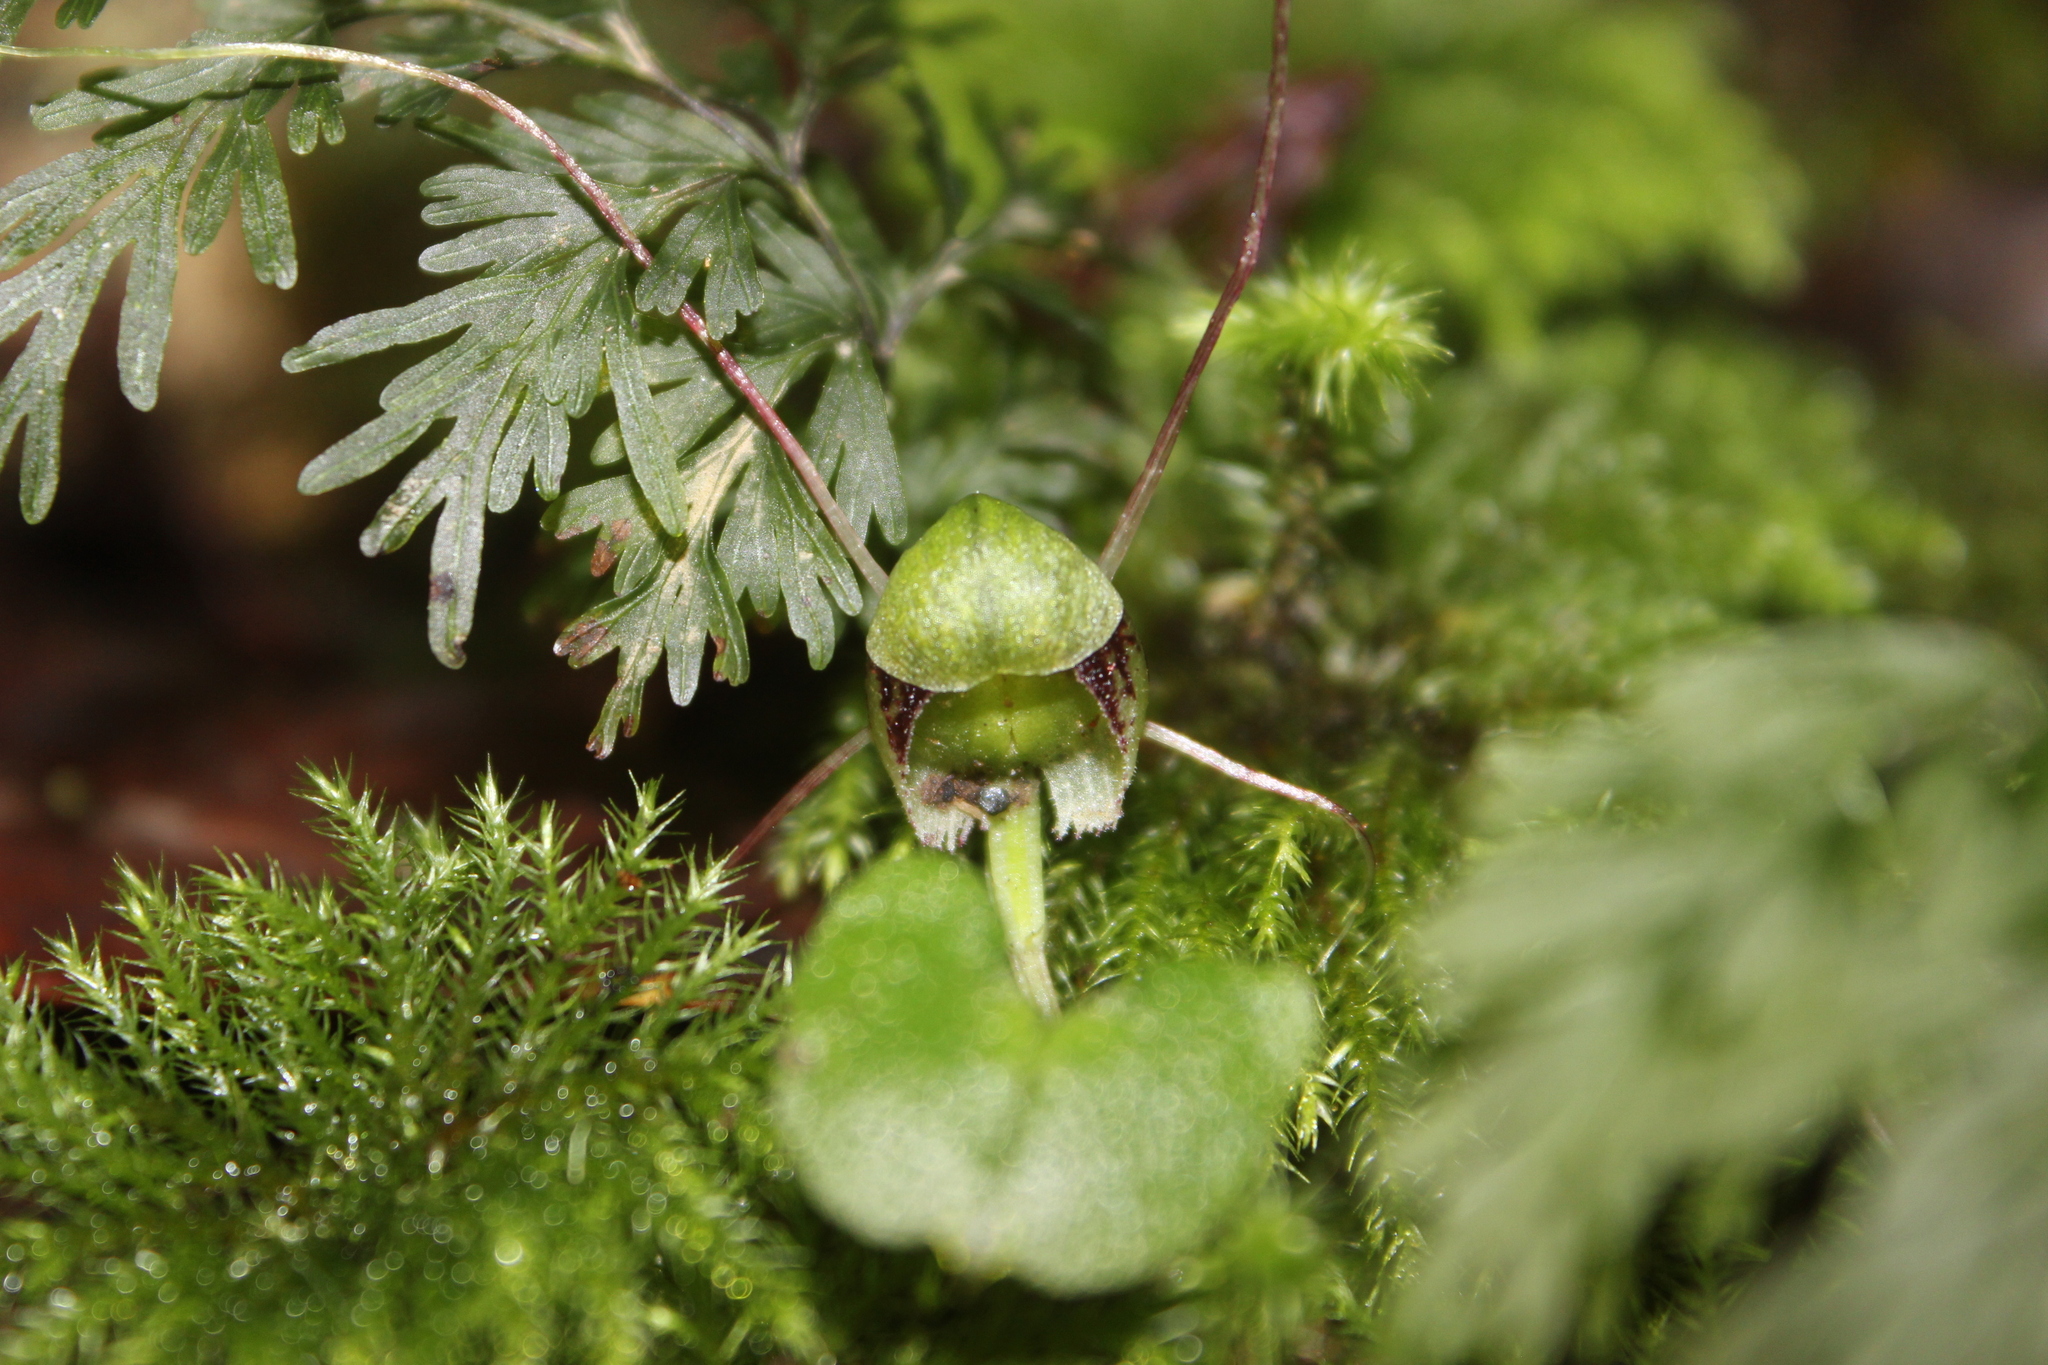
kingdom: Plantae
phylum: Tracheophyta
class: Liliopsida
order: Asparagales
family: Orchidaceae
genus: Corybas
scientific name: Corybas vitreus
